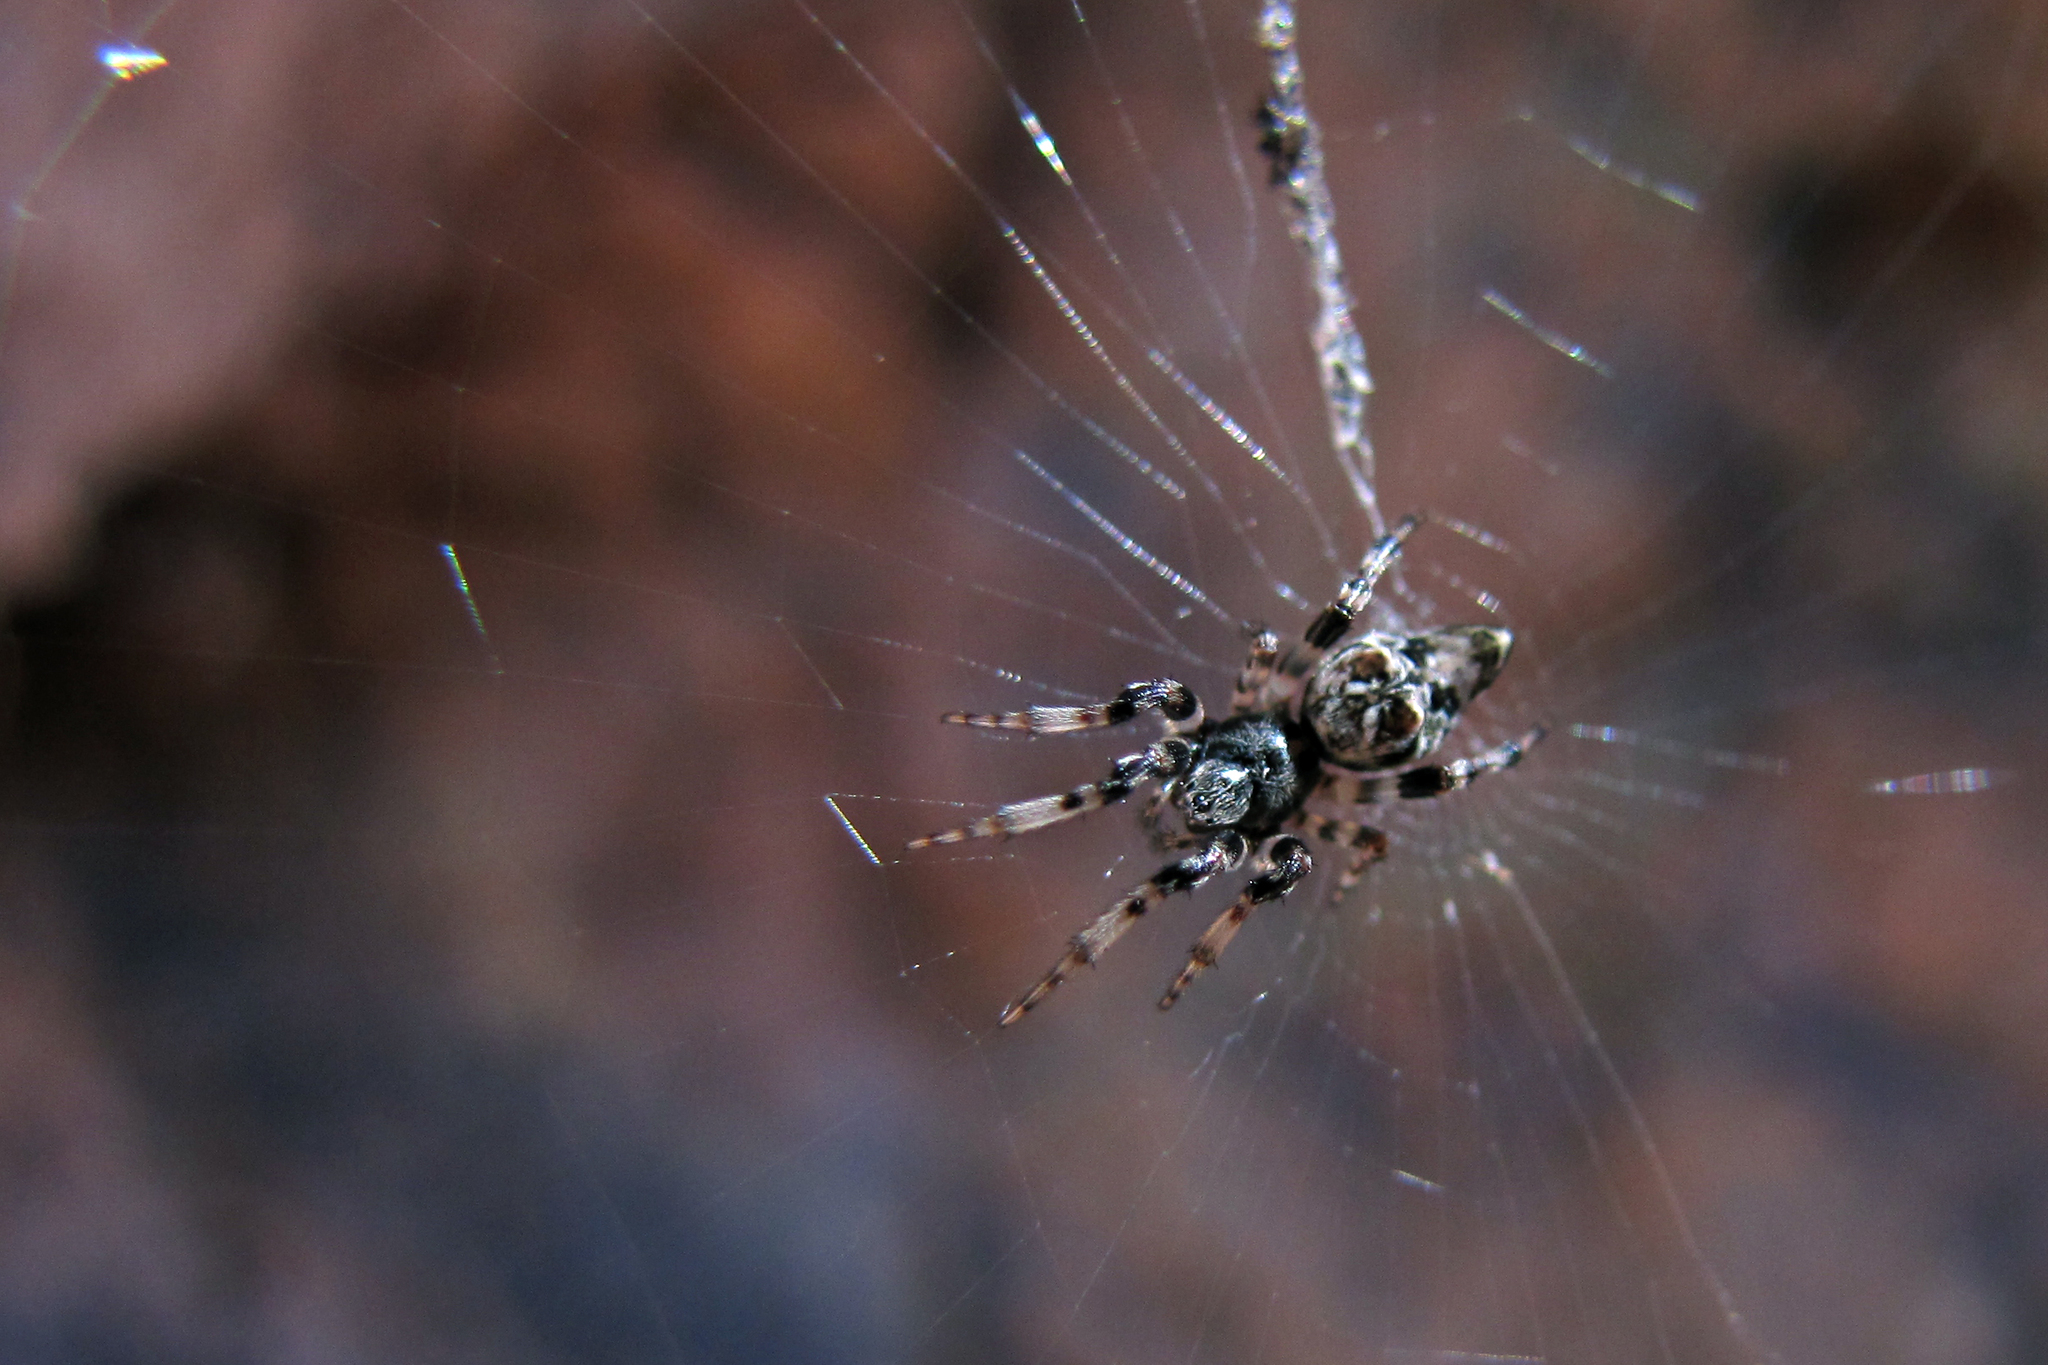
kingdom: Animalia
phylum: Arthropoda
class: Arachnida
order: Araneae
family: Araneidae
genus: Cyclosa
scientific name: Cyclosa
